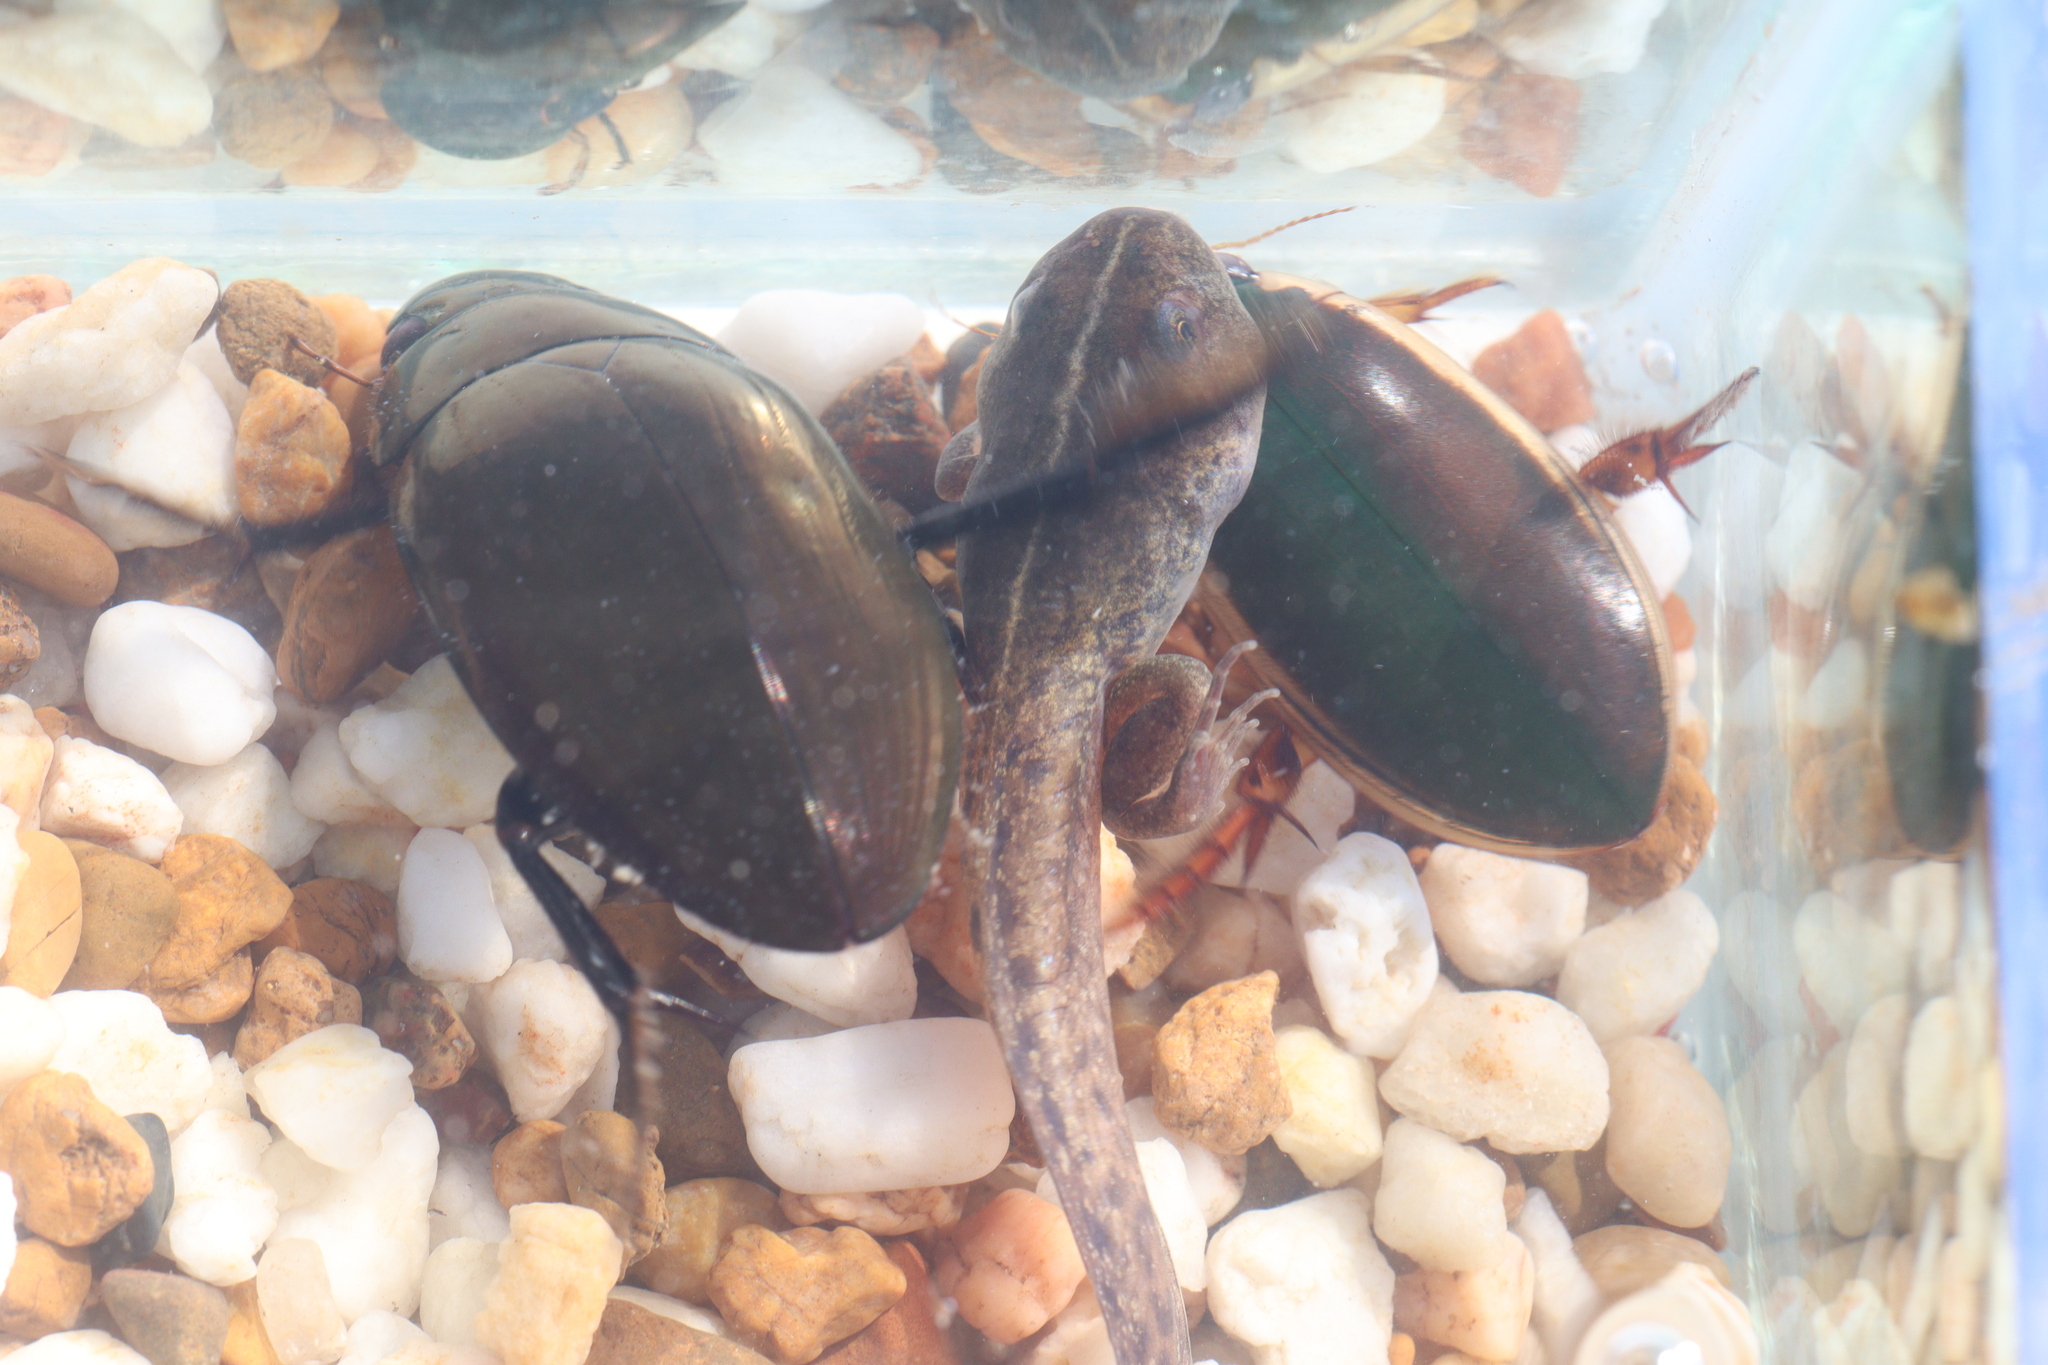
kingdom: Animalia
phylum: Arthropoda
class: Insecta
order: Coleoptera
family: Dytiscidae
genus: Onychohydrus
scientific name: Onychohydrus scutellaris
